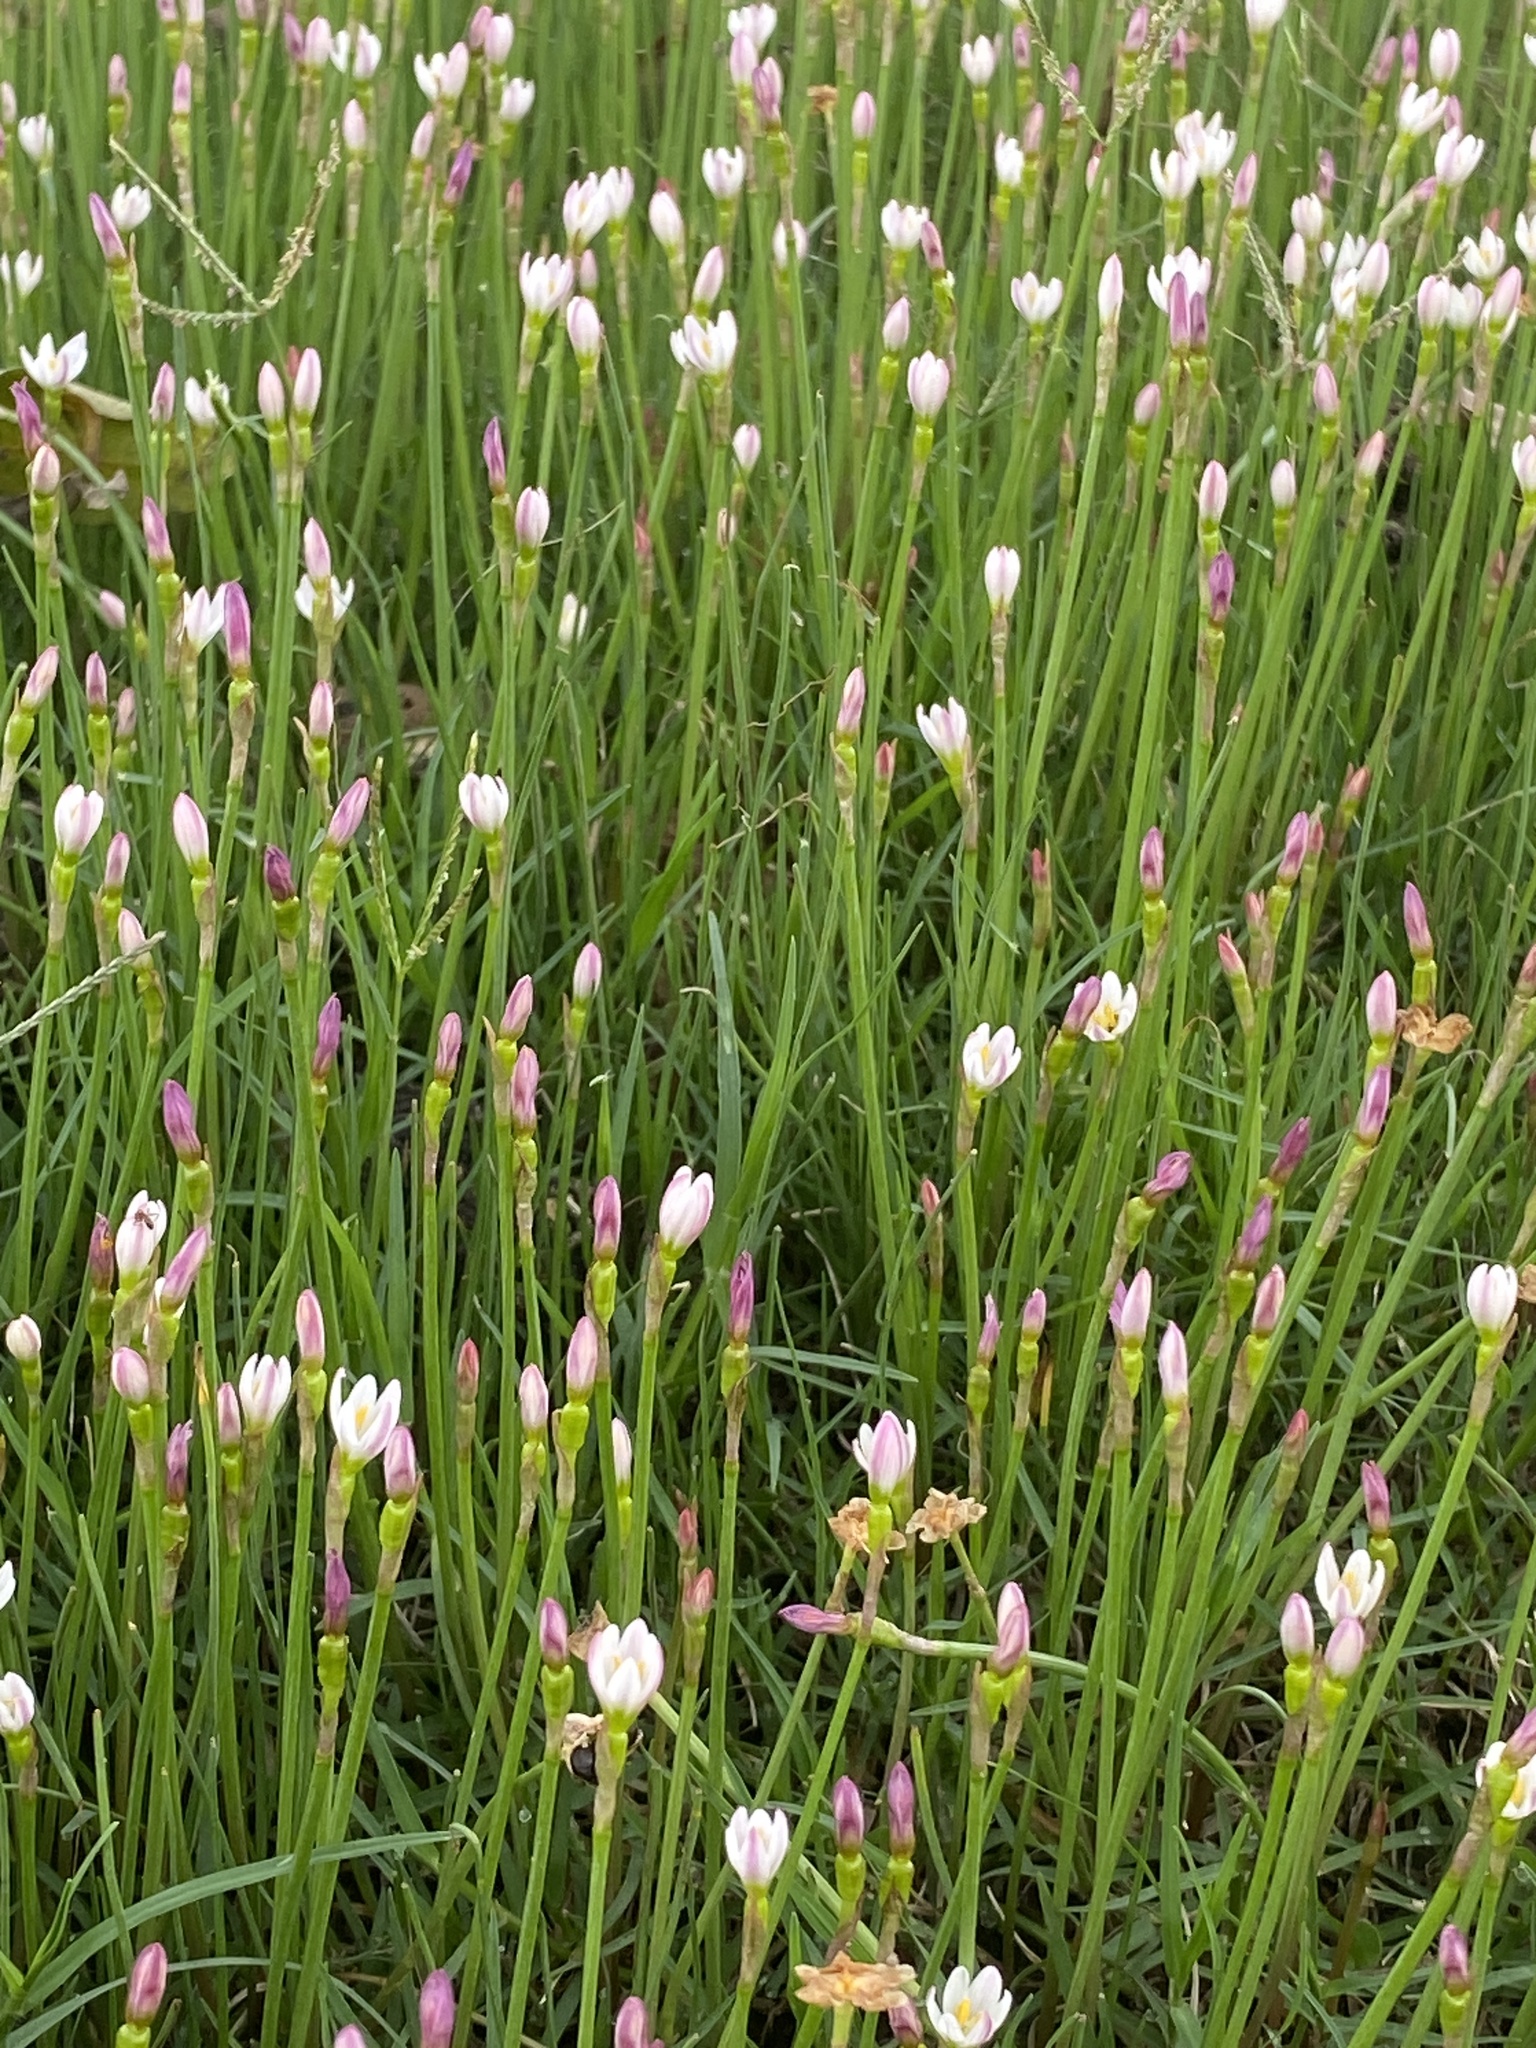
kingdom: Plantae
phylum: Tracheophyta
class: Liliopsida
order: Asparagales
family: Amaryllidaceae
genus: Zephyranthes
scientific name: Zephyranthes minima
